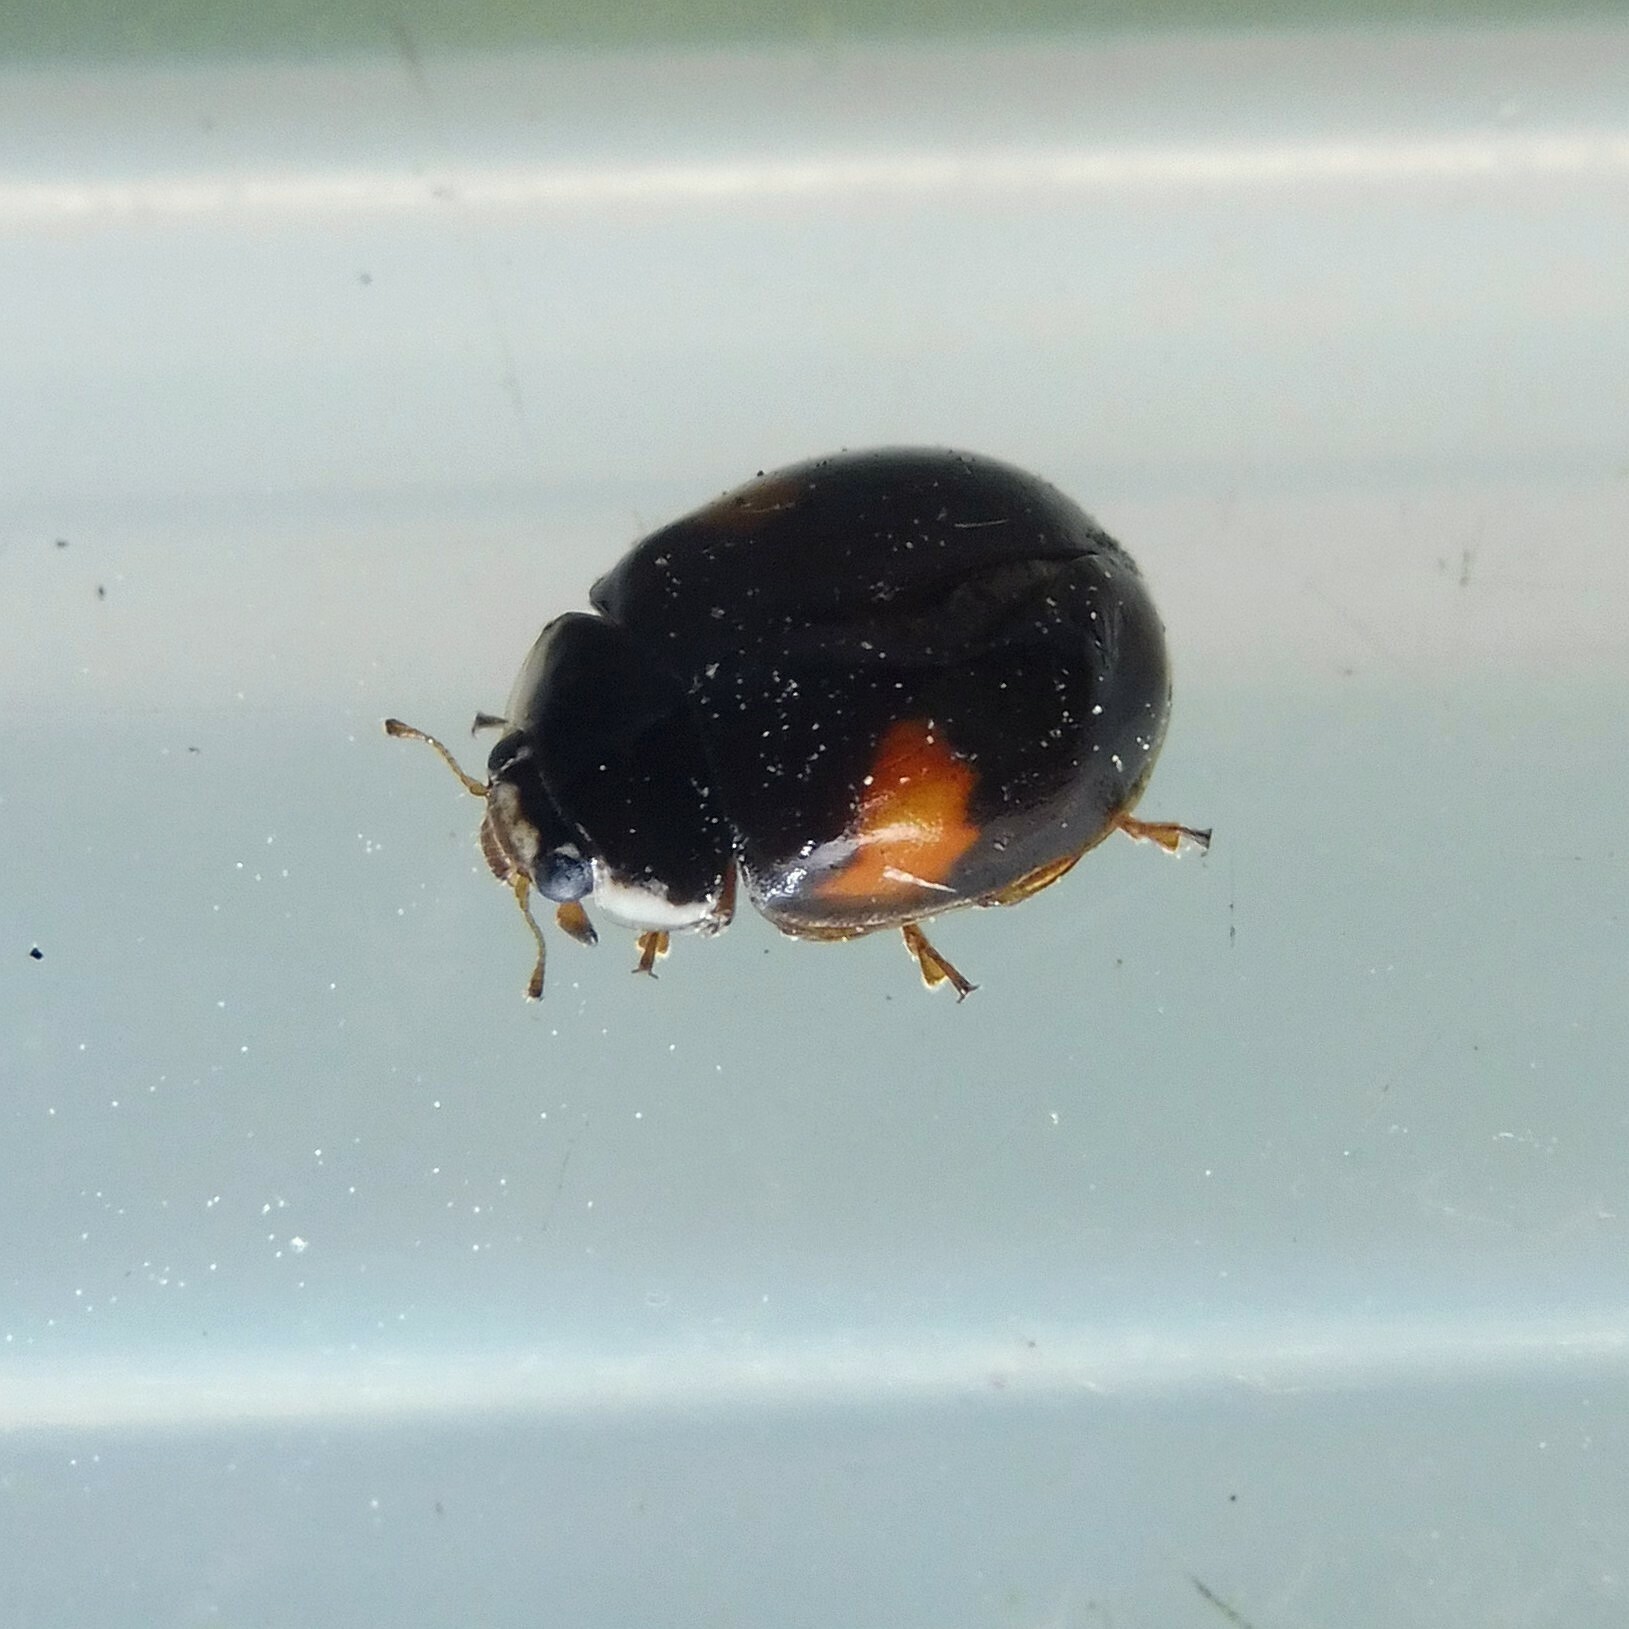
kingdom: Animalia
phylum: Arthropoda
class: Insecta
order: Coleoptera
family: Coccinellidae
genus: Adalia
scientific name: Adalia decempunctata
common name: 10-spot ladybird
